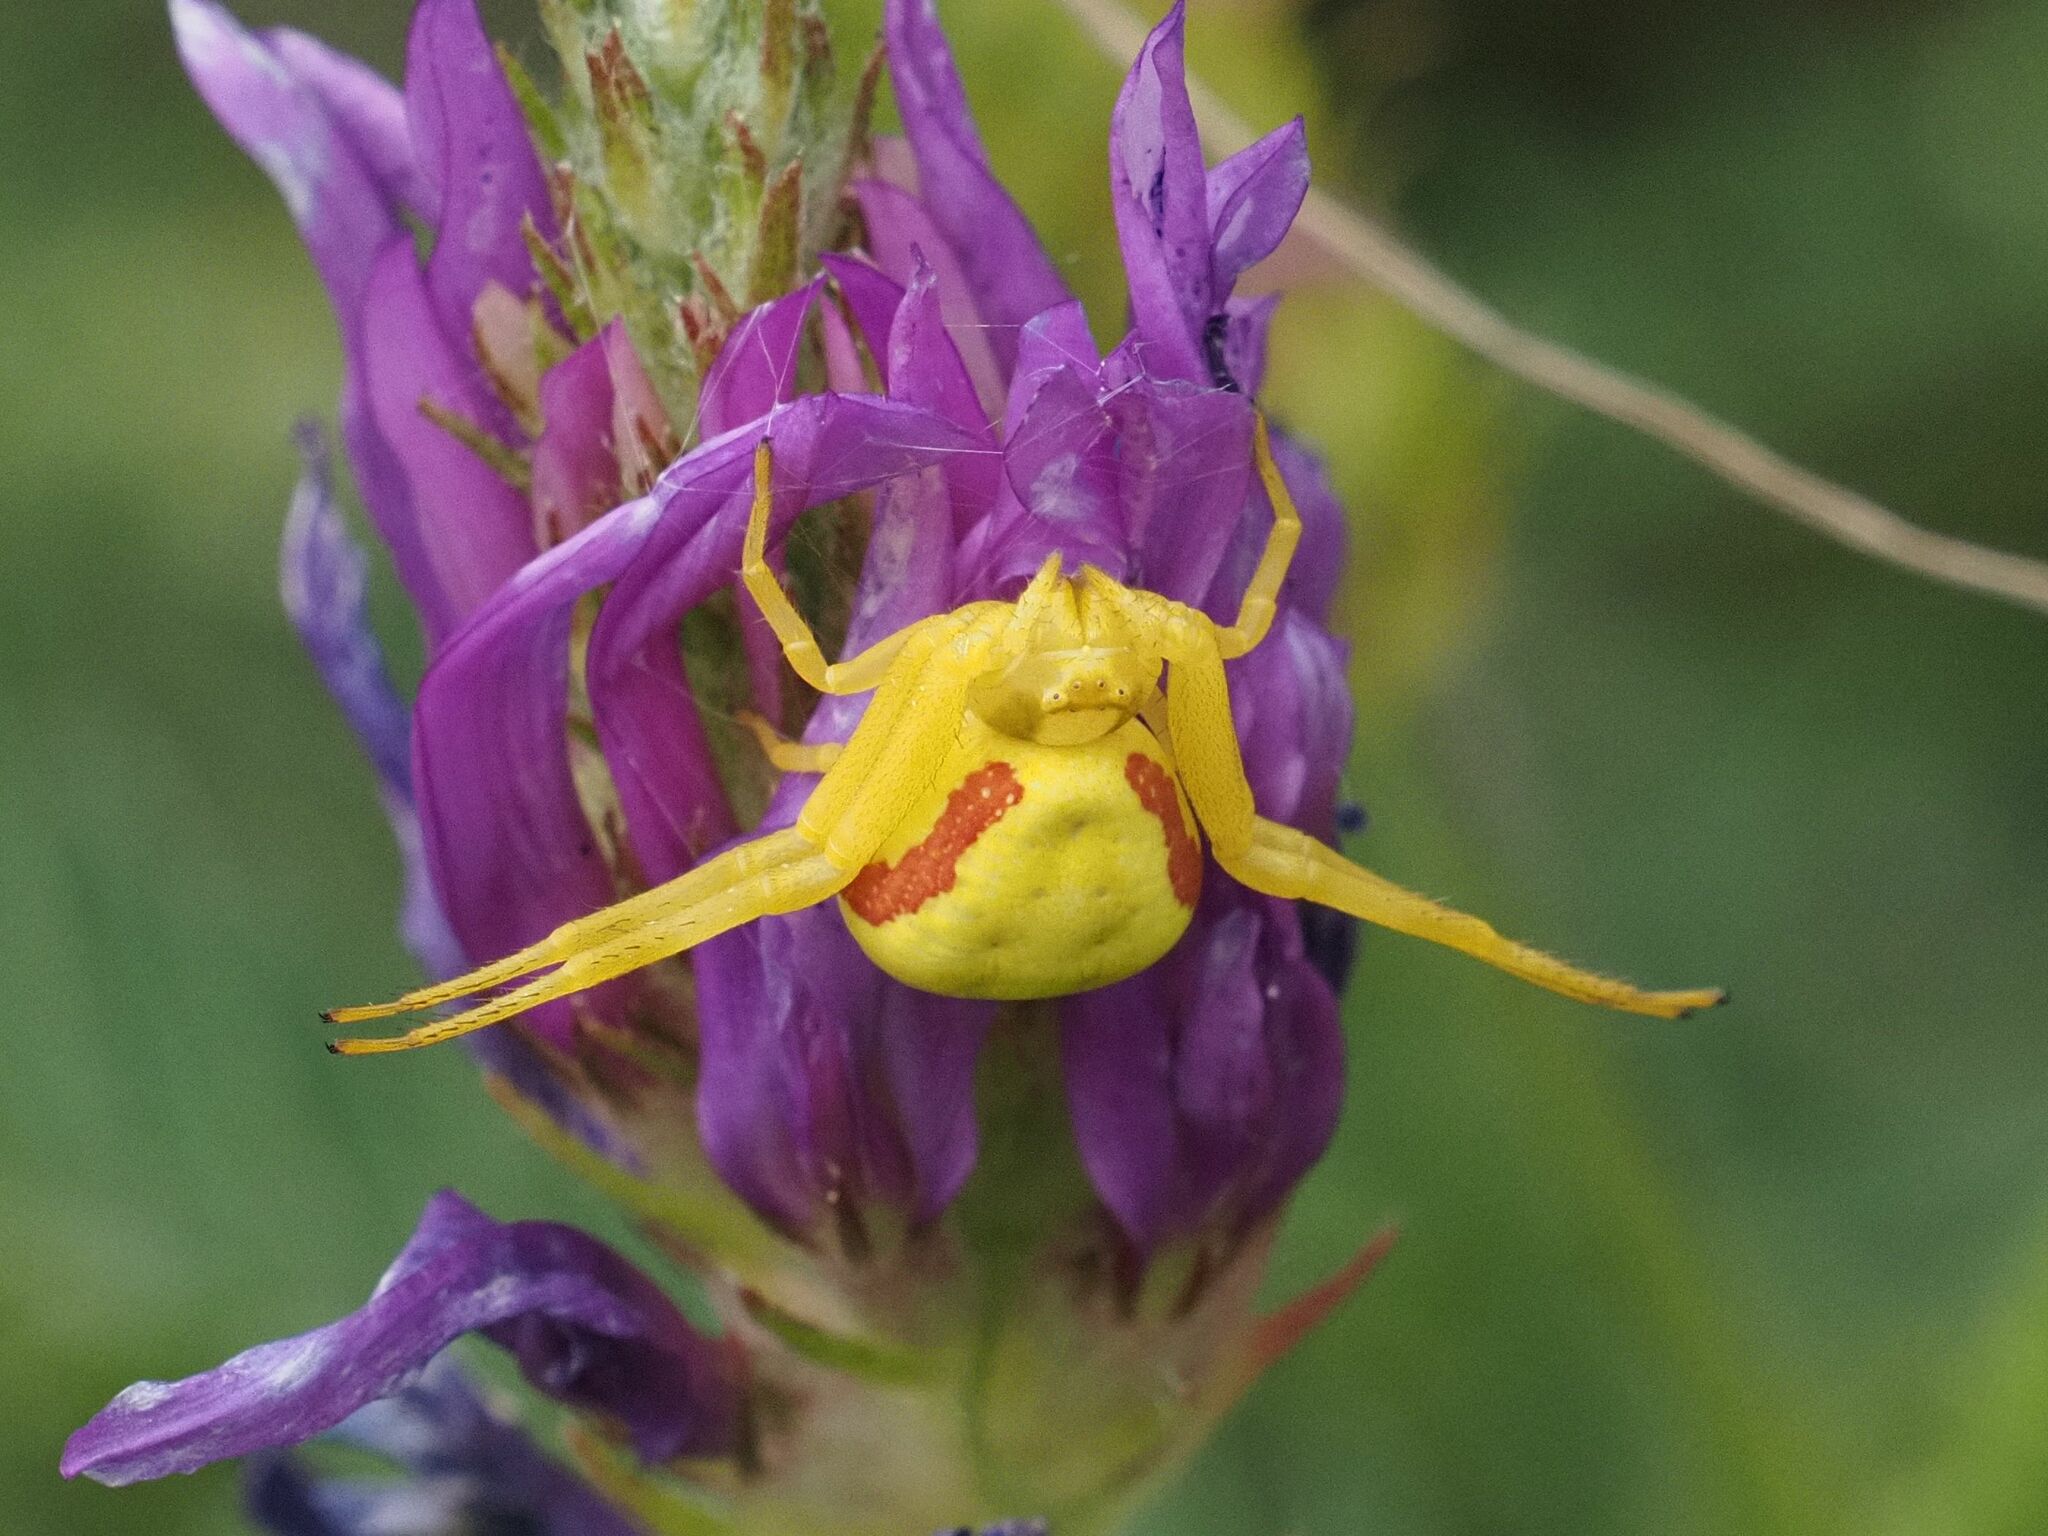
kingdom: Animalia
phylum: Arthropoda
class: Arachnida
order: Araneae
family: Thomisidae
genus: Misumena
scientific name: Misumena vatia
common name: Goldenrod crab spider
